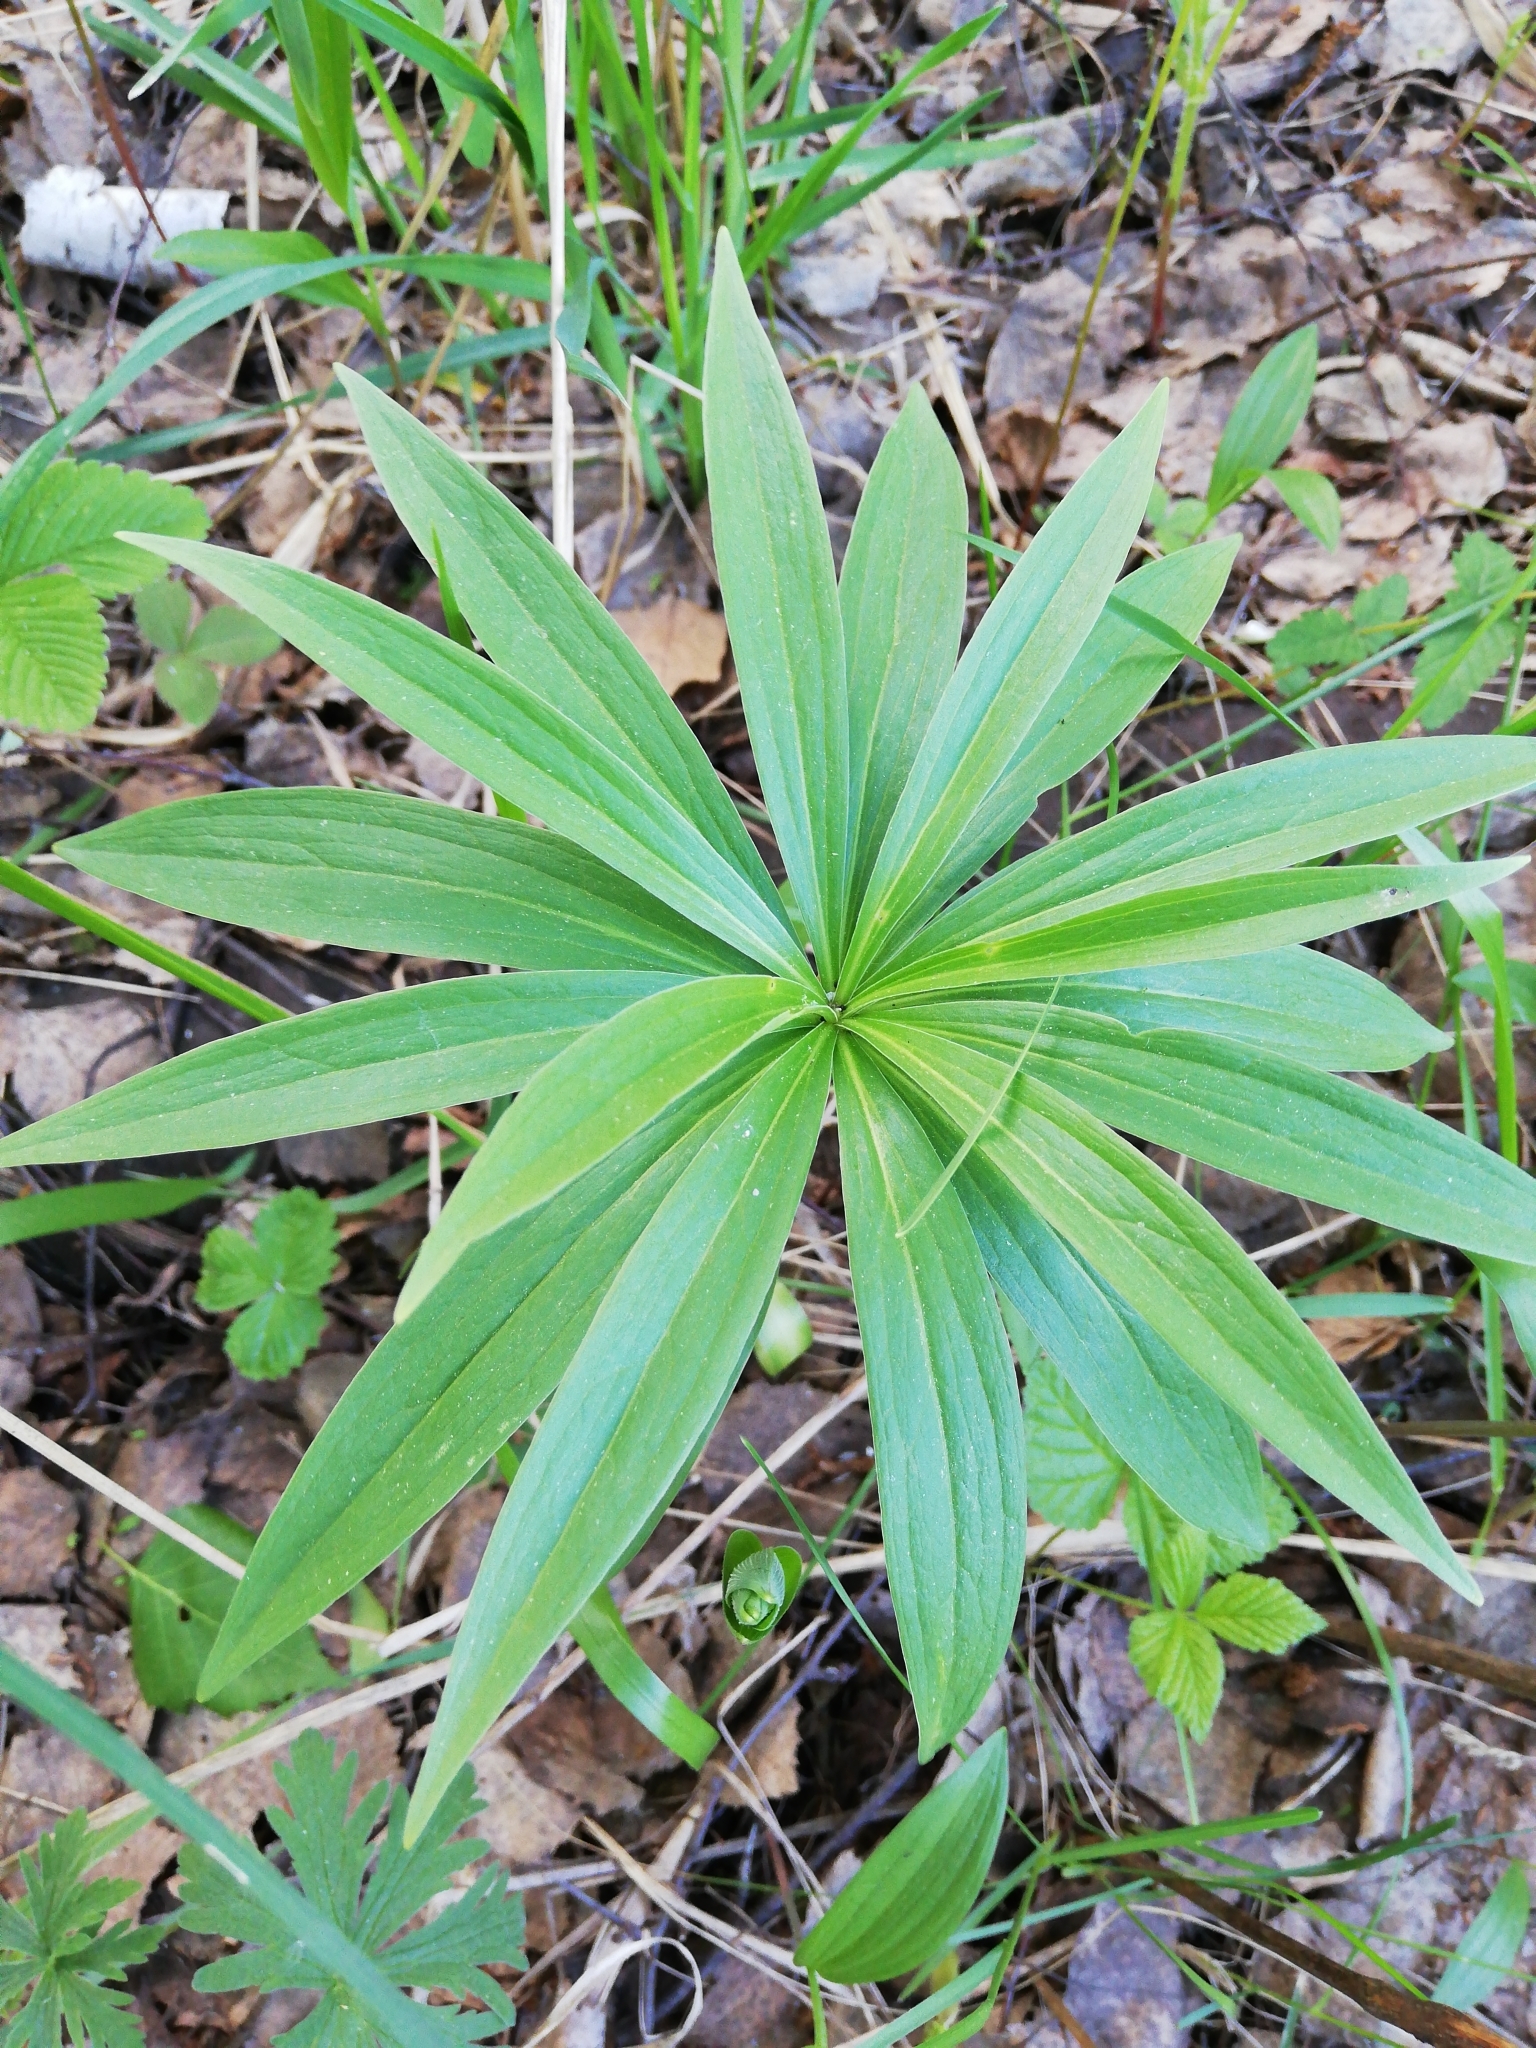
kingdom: Plantae
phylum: Tracheophyta
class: Liliopsida
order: Liliales
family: Liliaceae
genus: Lilium
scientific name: Lilium martagon
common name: Martagon lily
